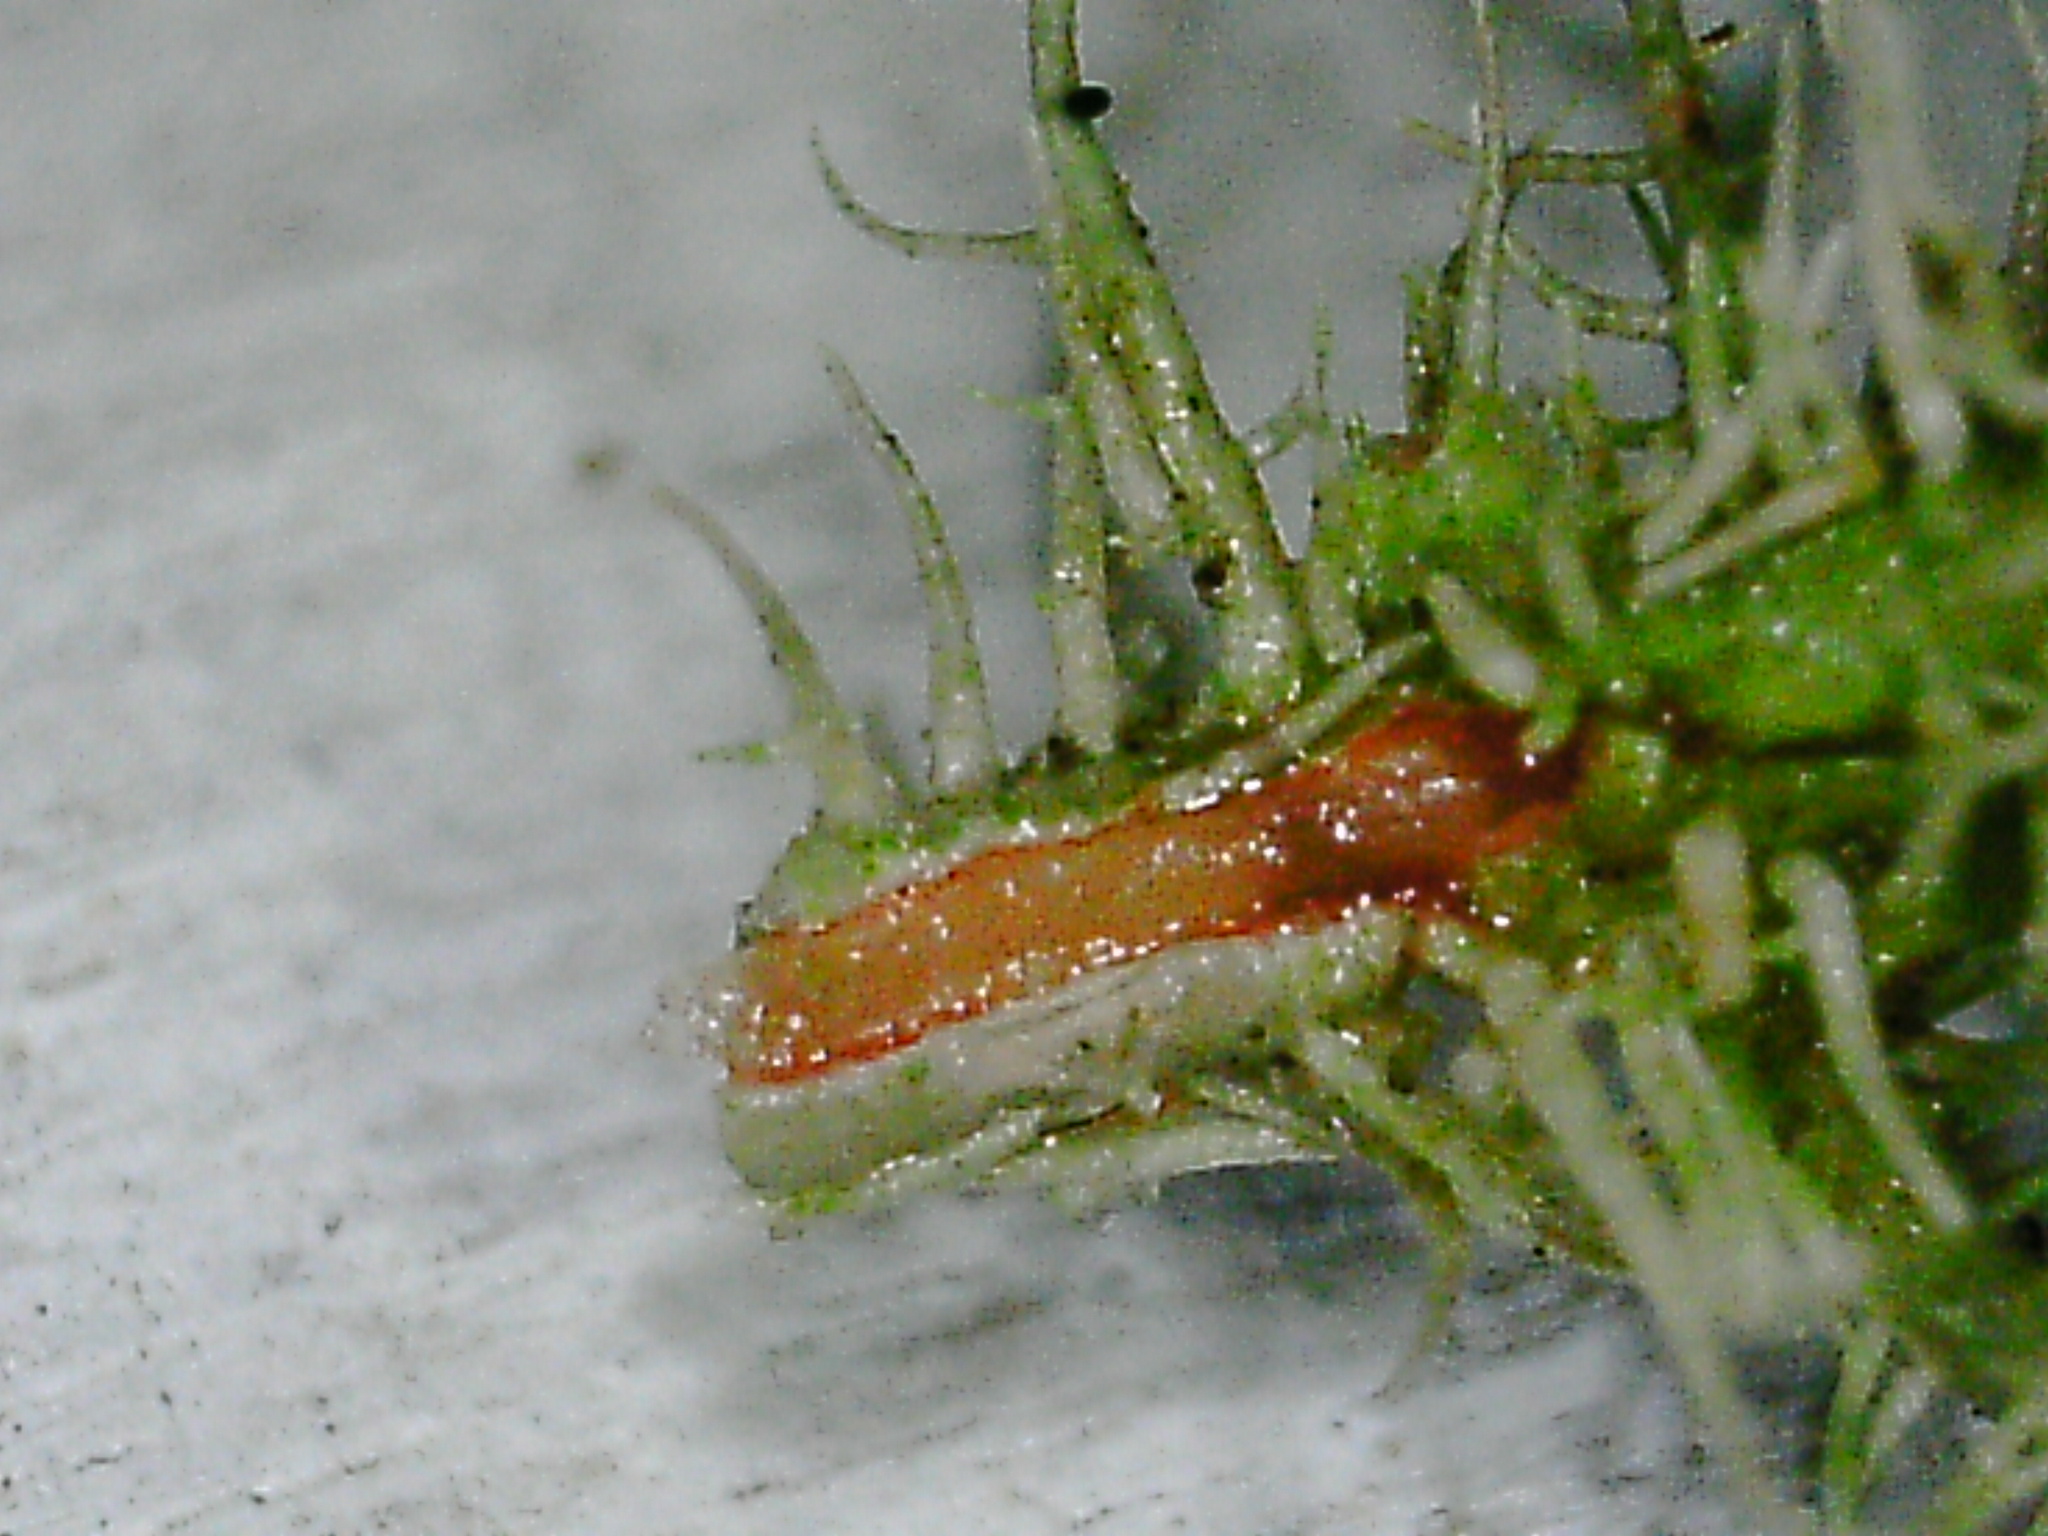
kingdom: Fungi
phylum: Ascomycota
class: Lecanoromycetes
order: Lecanorales
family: Parmeliaceae
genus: Usnea
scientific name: Usnea strigosa
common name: Bushy beard lichen
